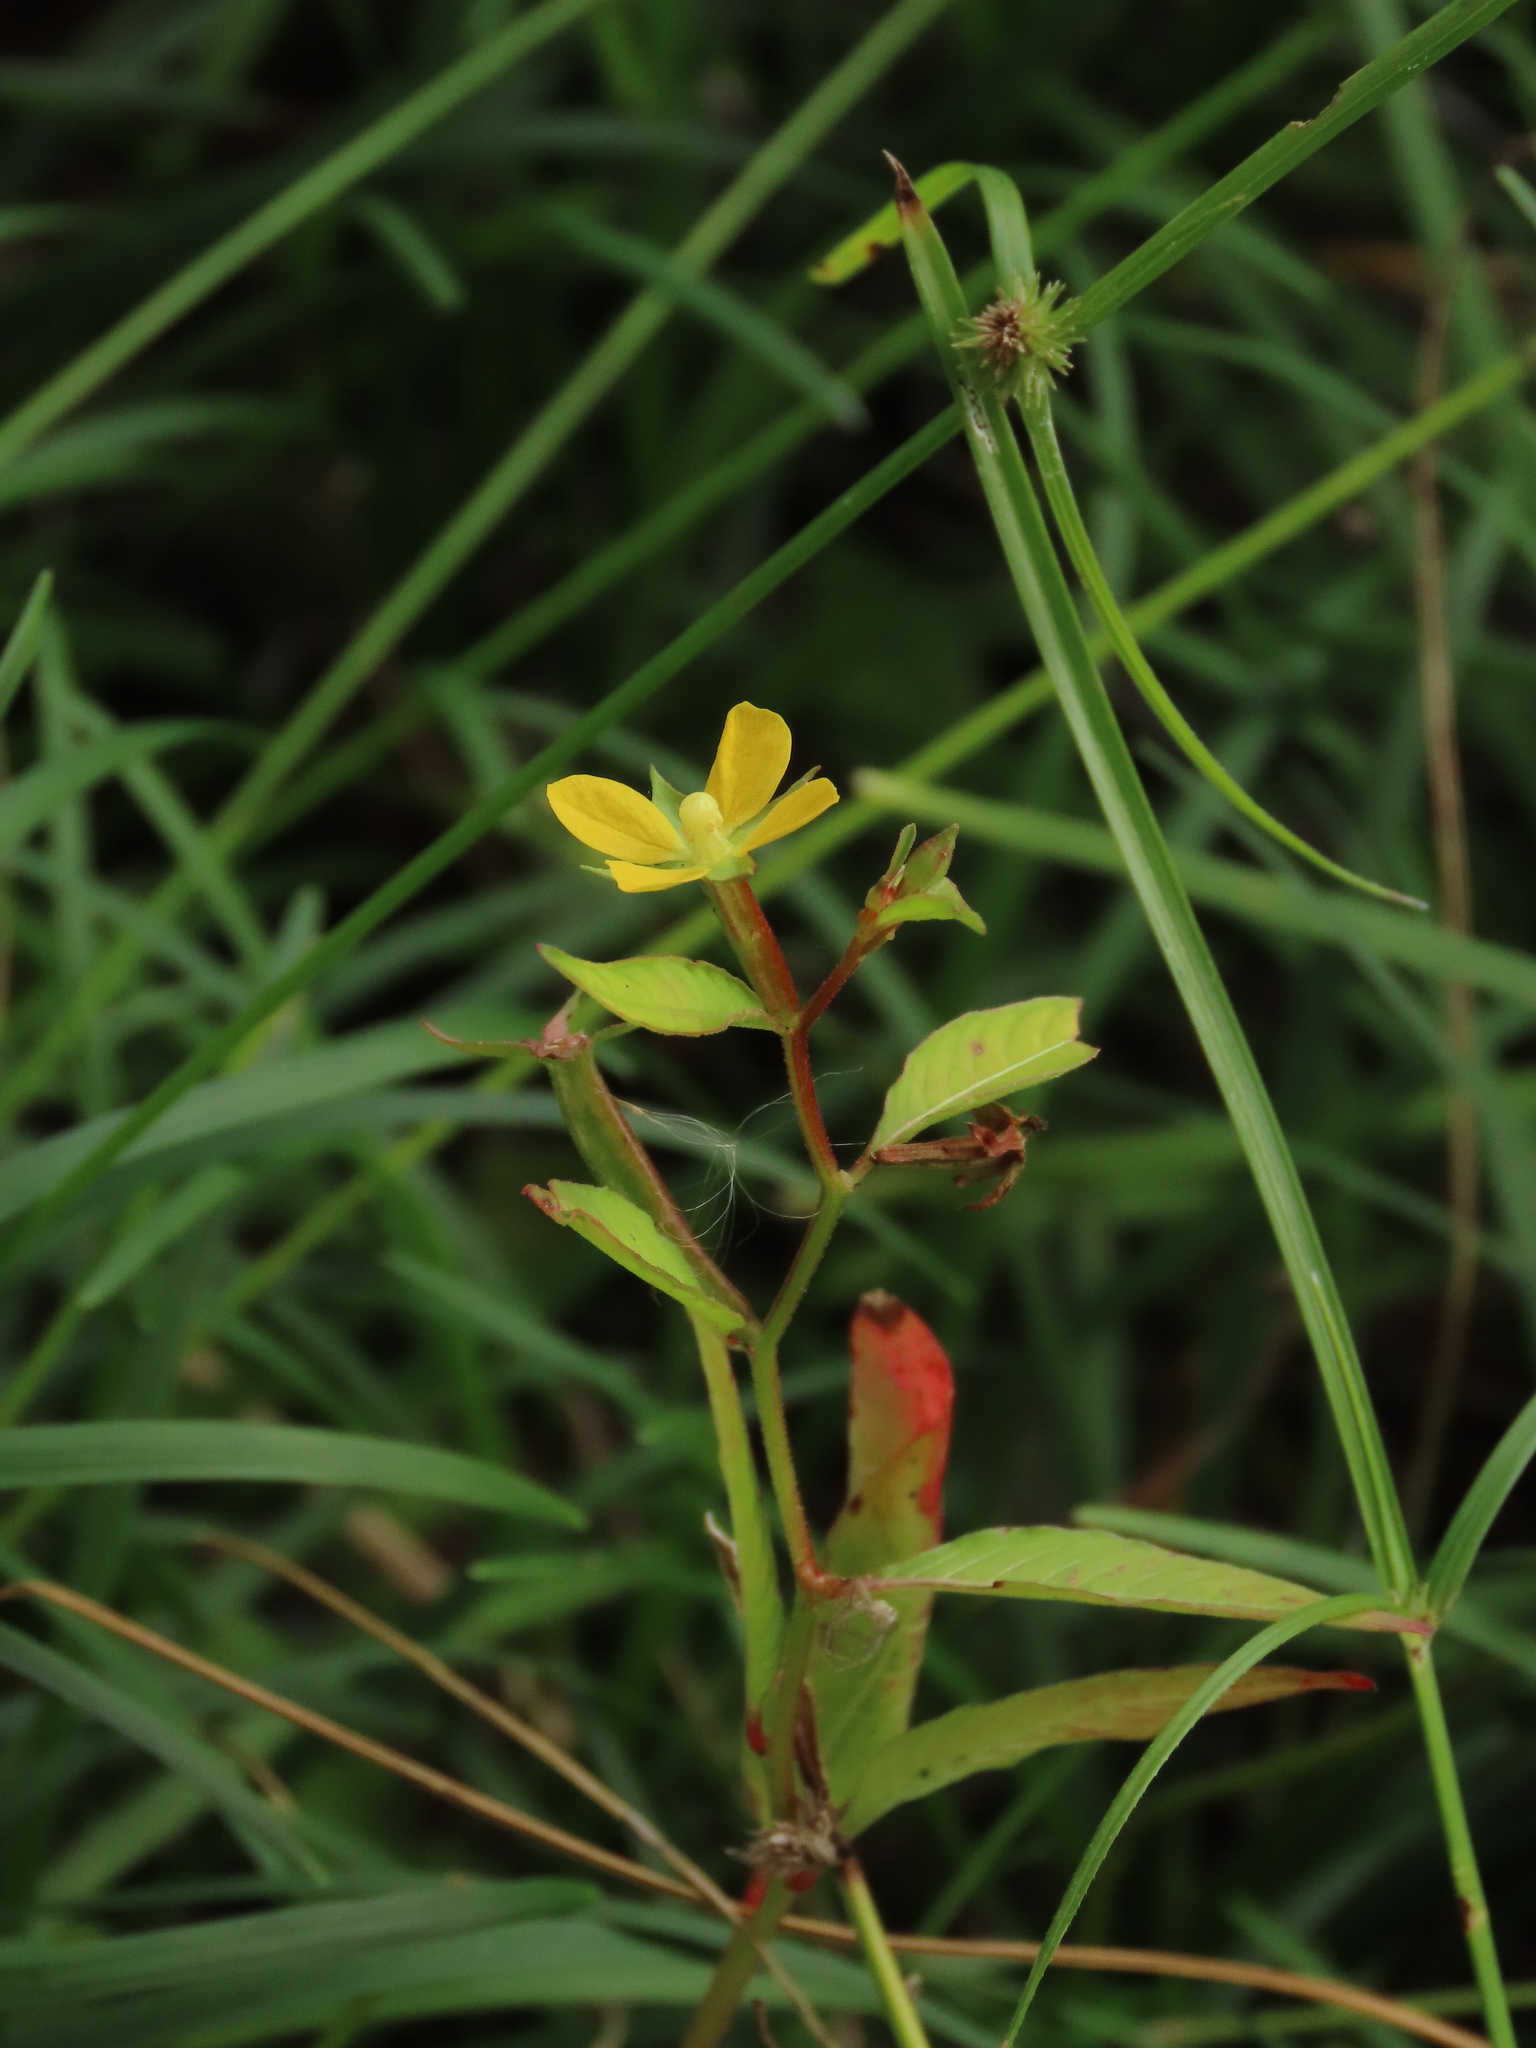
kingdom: Plantae
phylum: Tracheophyta
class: Magnoliopsida
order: Myrtales
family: Onagraceae
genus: Ludwigia
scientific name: Ludwigia hyssopifolia
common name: Linear leaf water primrose
